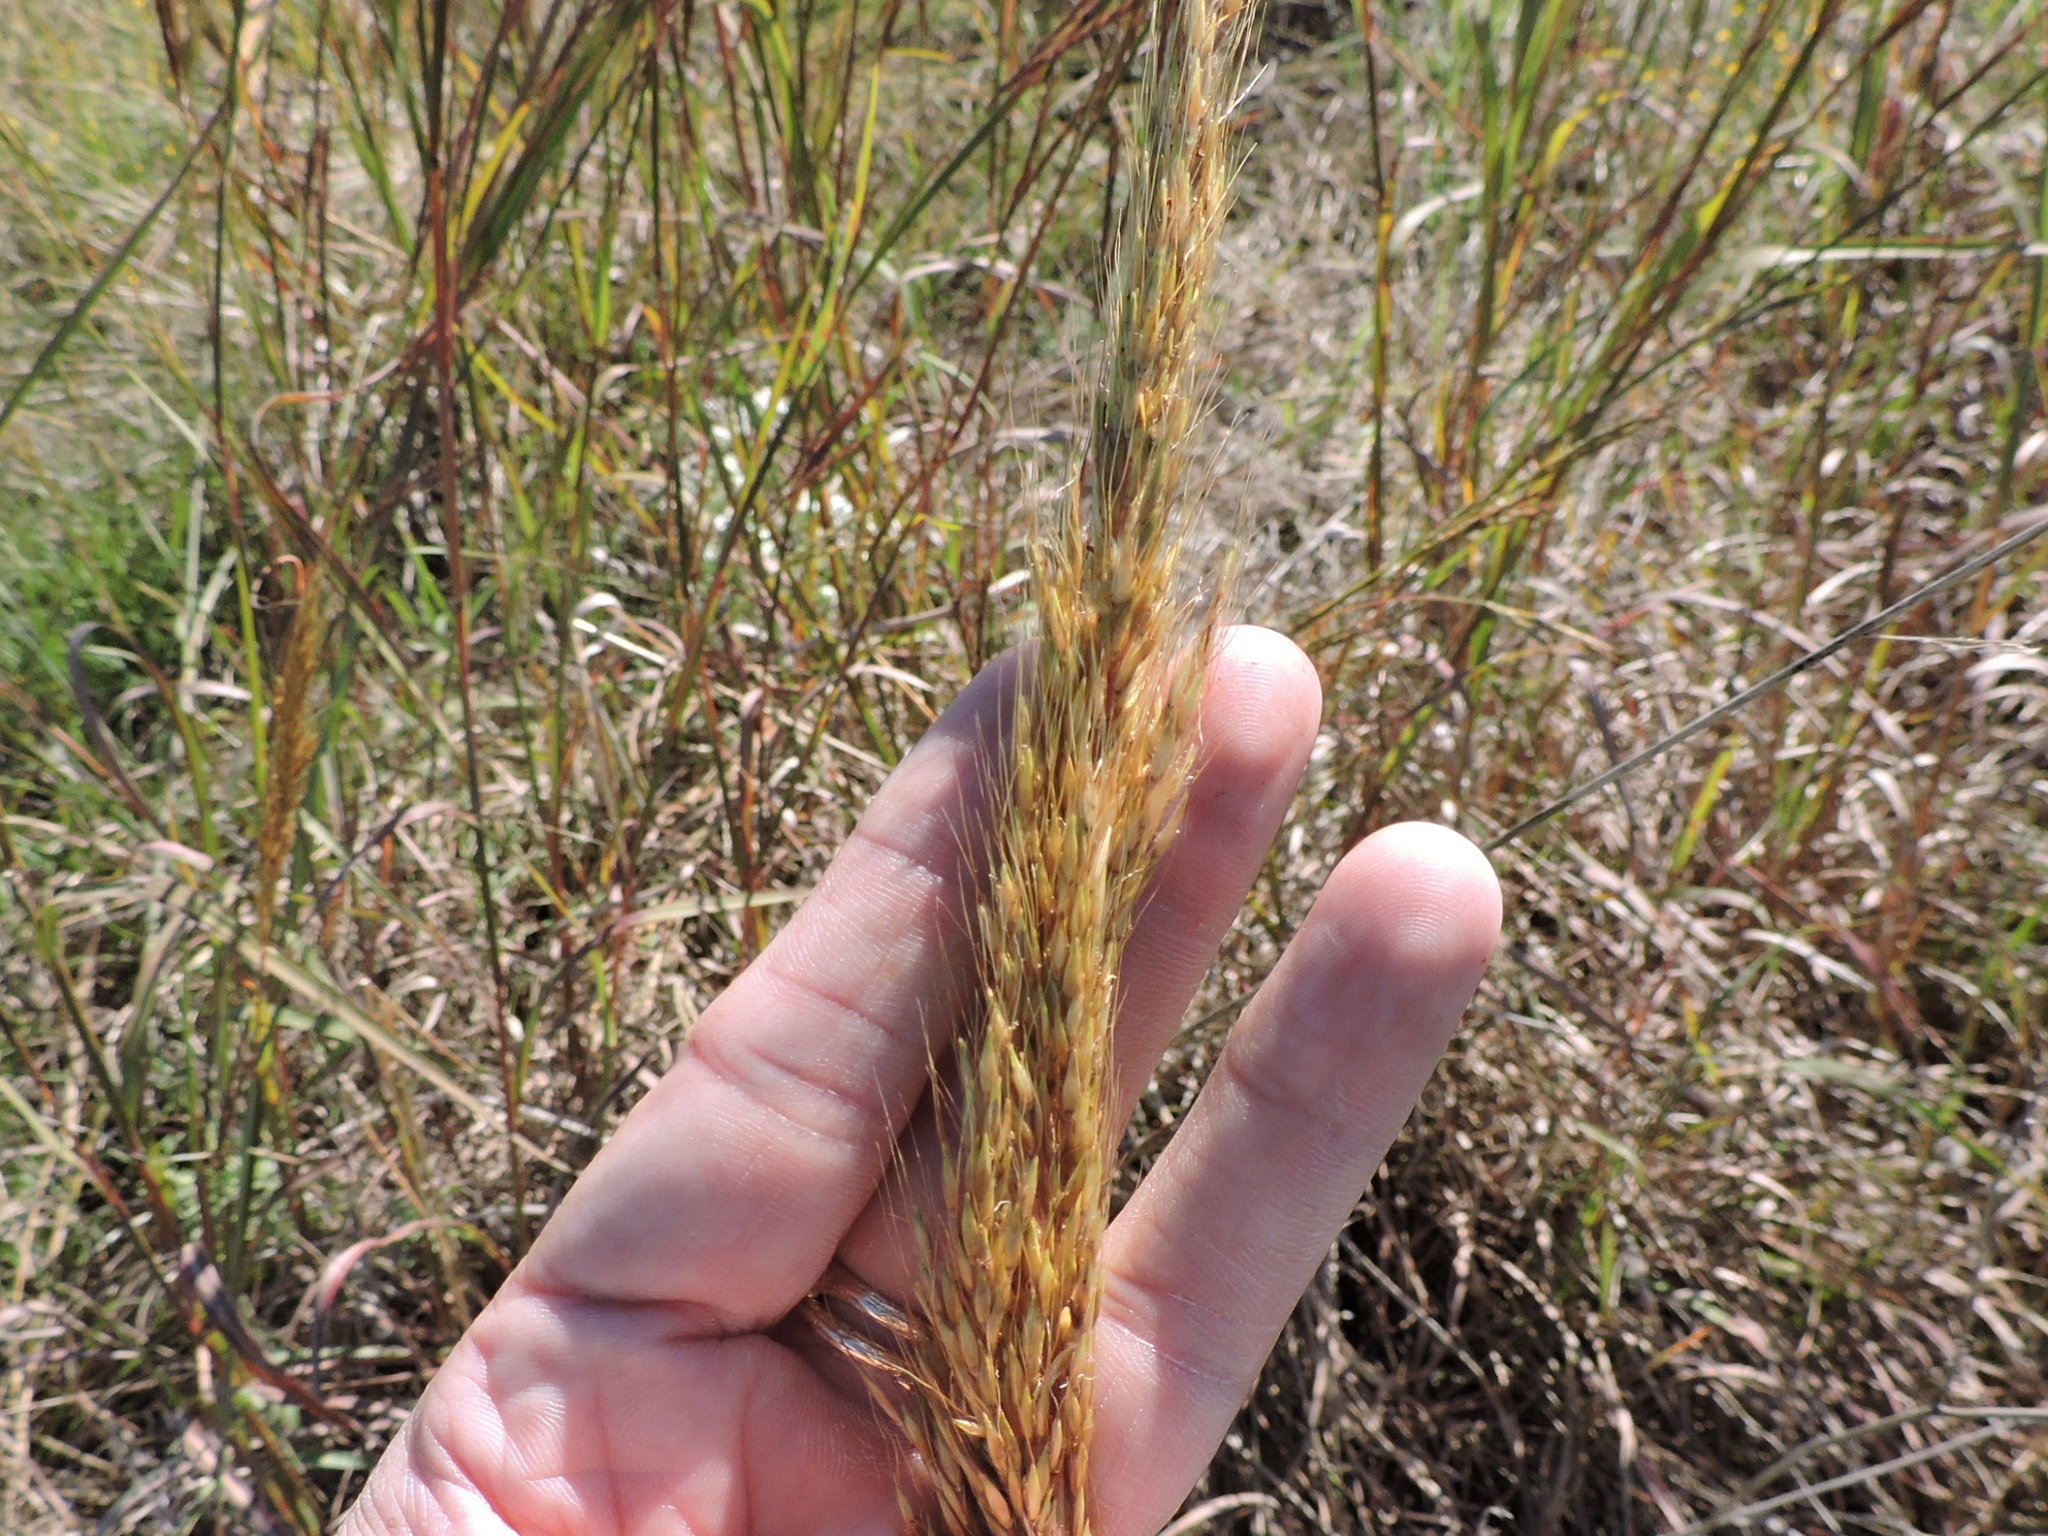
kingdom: Plantae
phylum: Tracheophyta
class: Liliopsida
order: Poales
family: Poaceae
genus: Sorghastrum
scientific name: Sorghastrum nutans
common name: Indian grass
